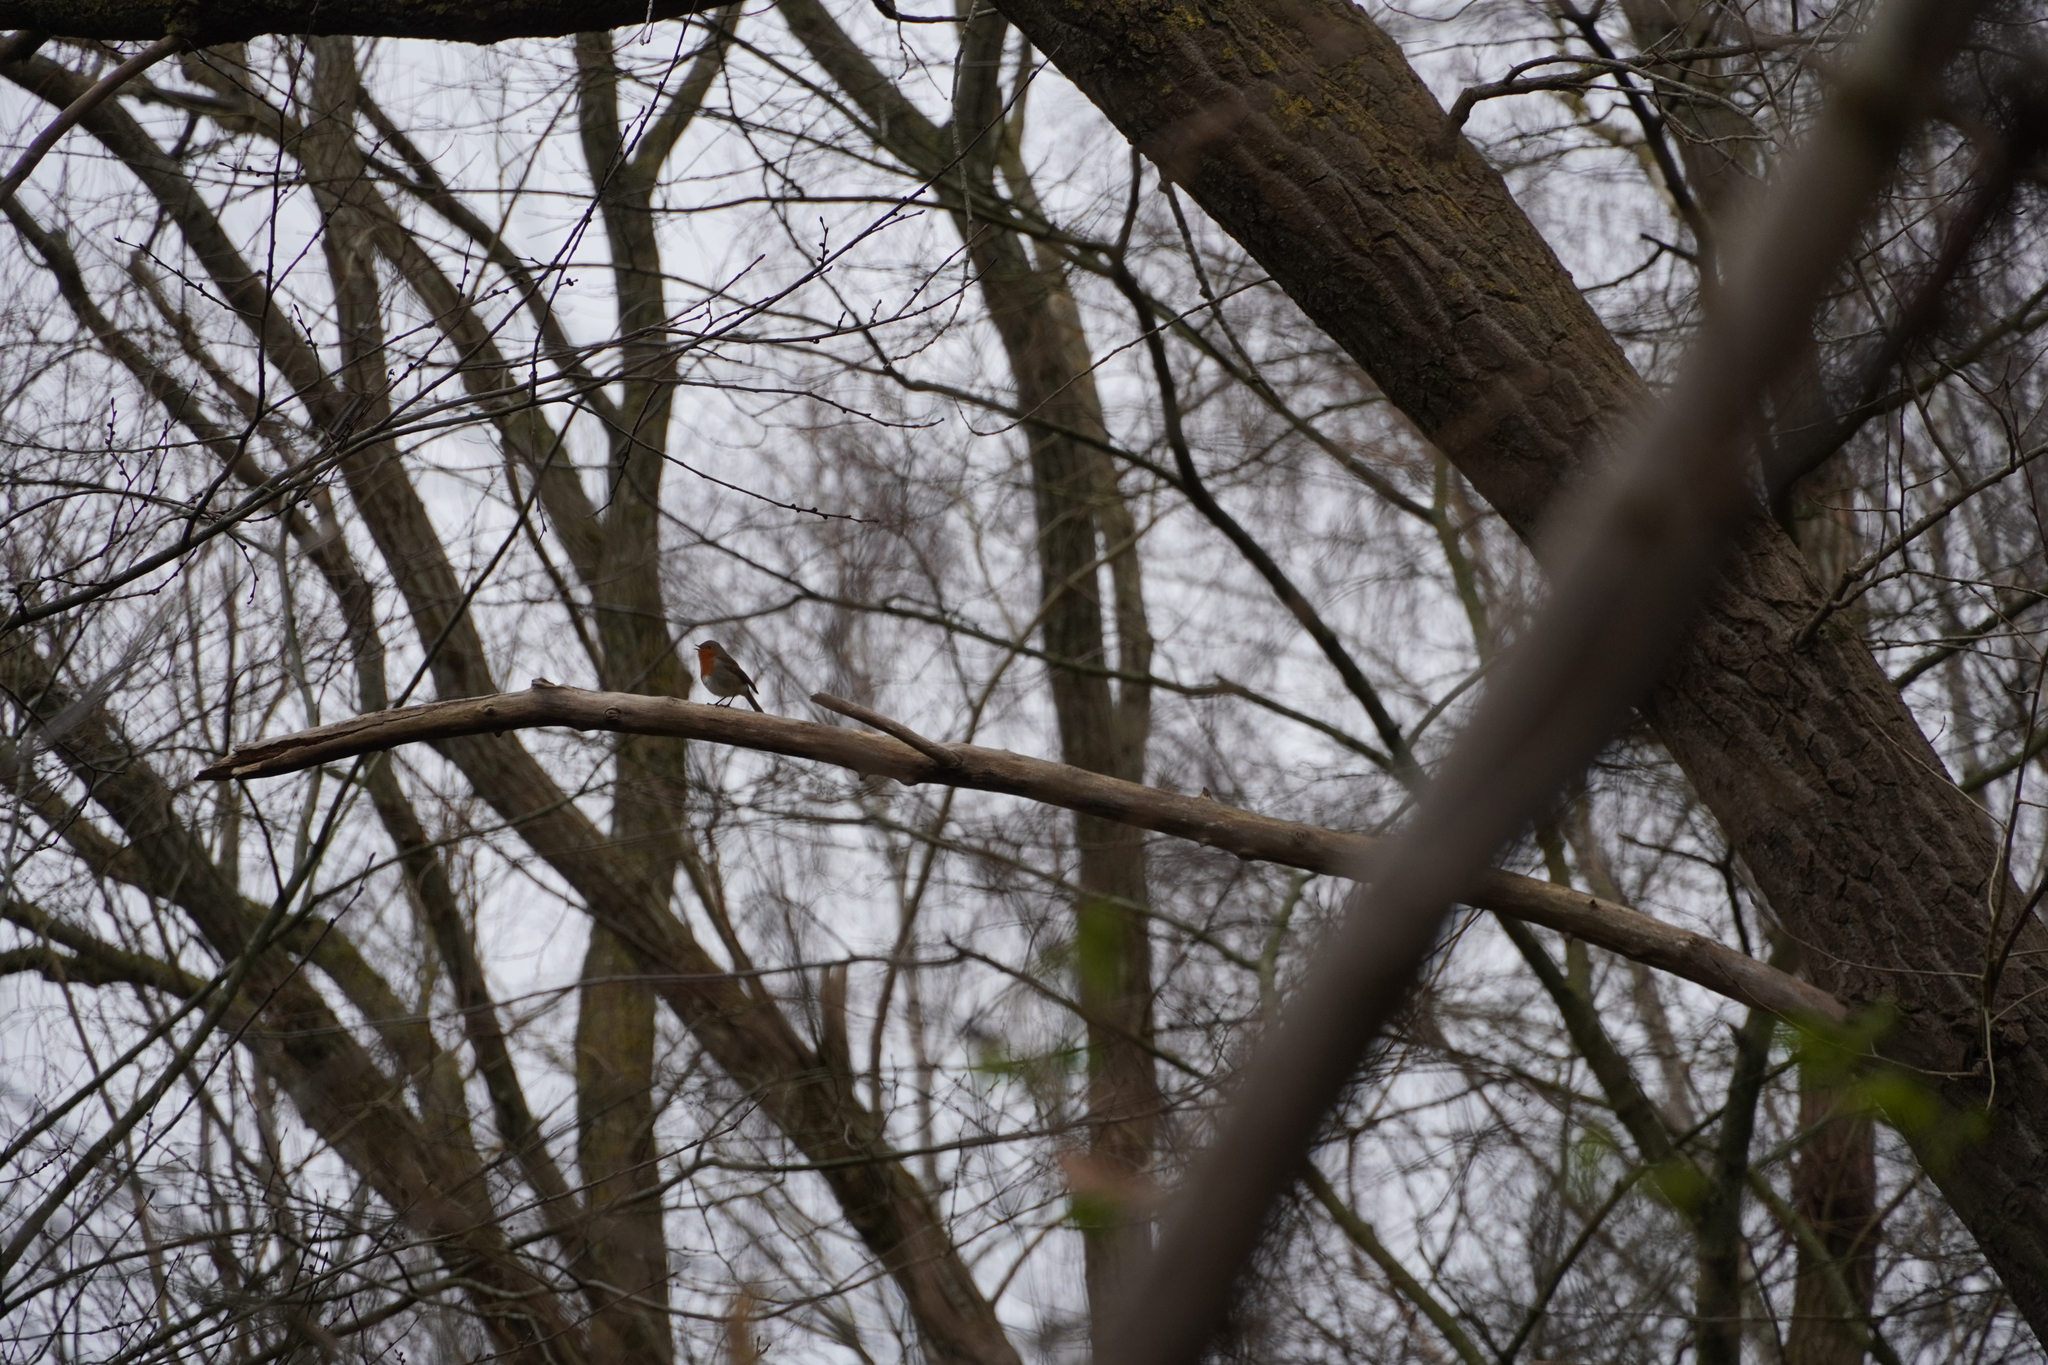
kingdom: Animalia
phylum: Chordata
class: Aves
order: Passeriformes
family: Muscicapidae
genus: Erithacus
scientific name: Erithacus rubecula
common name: European robin
